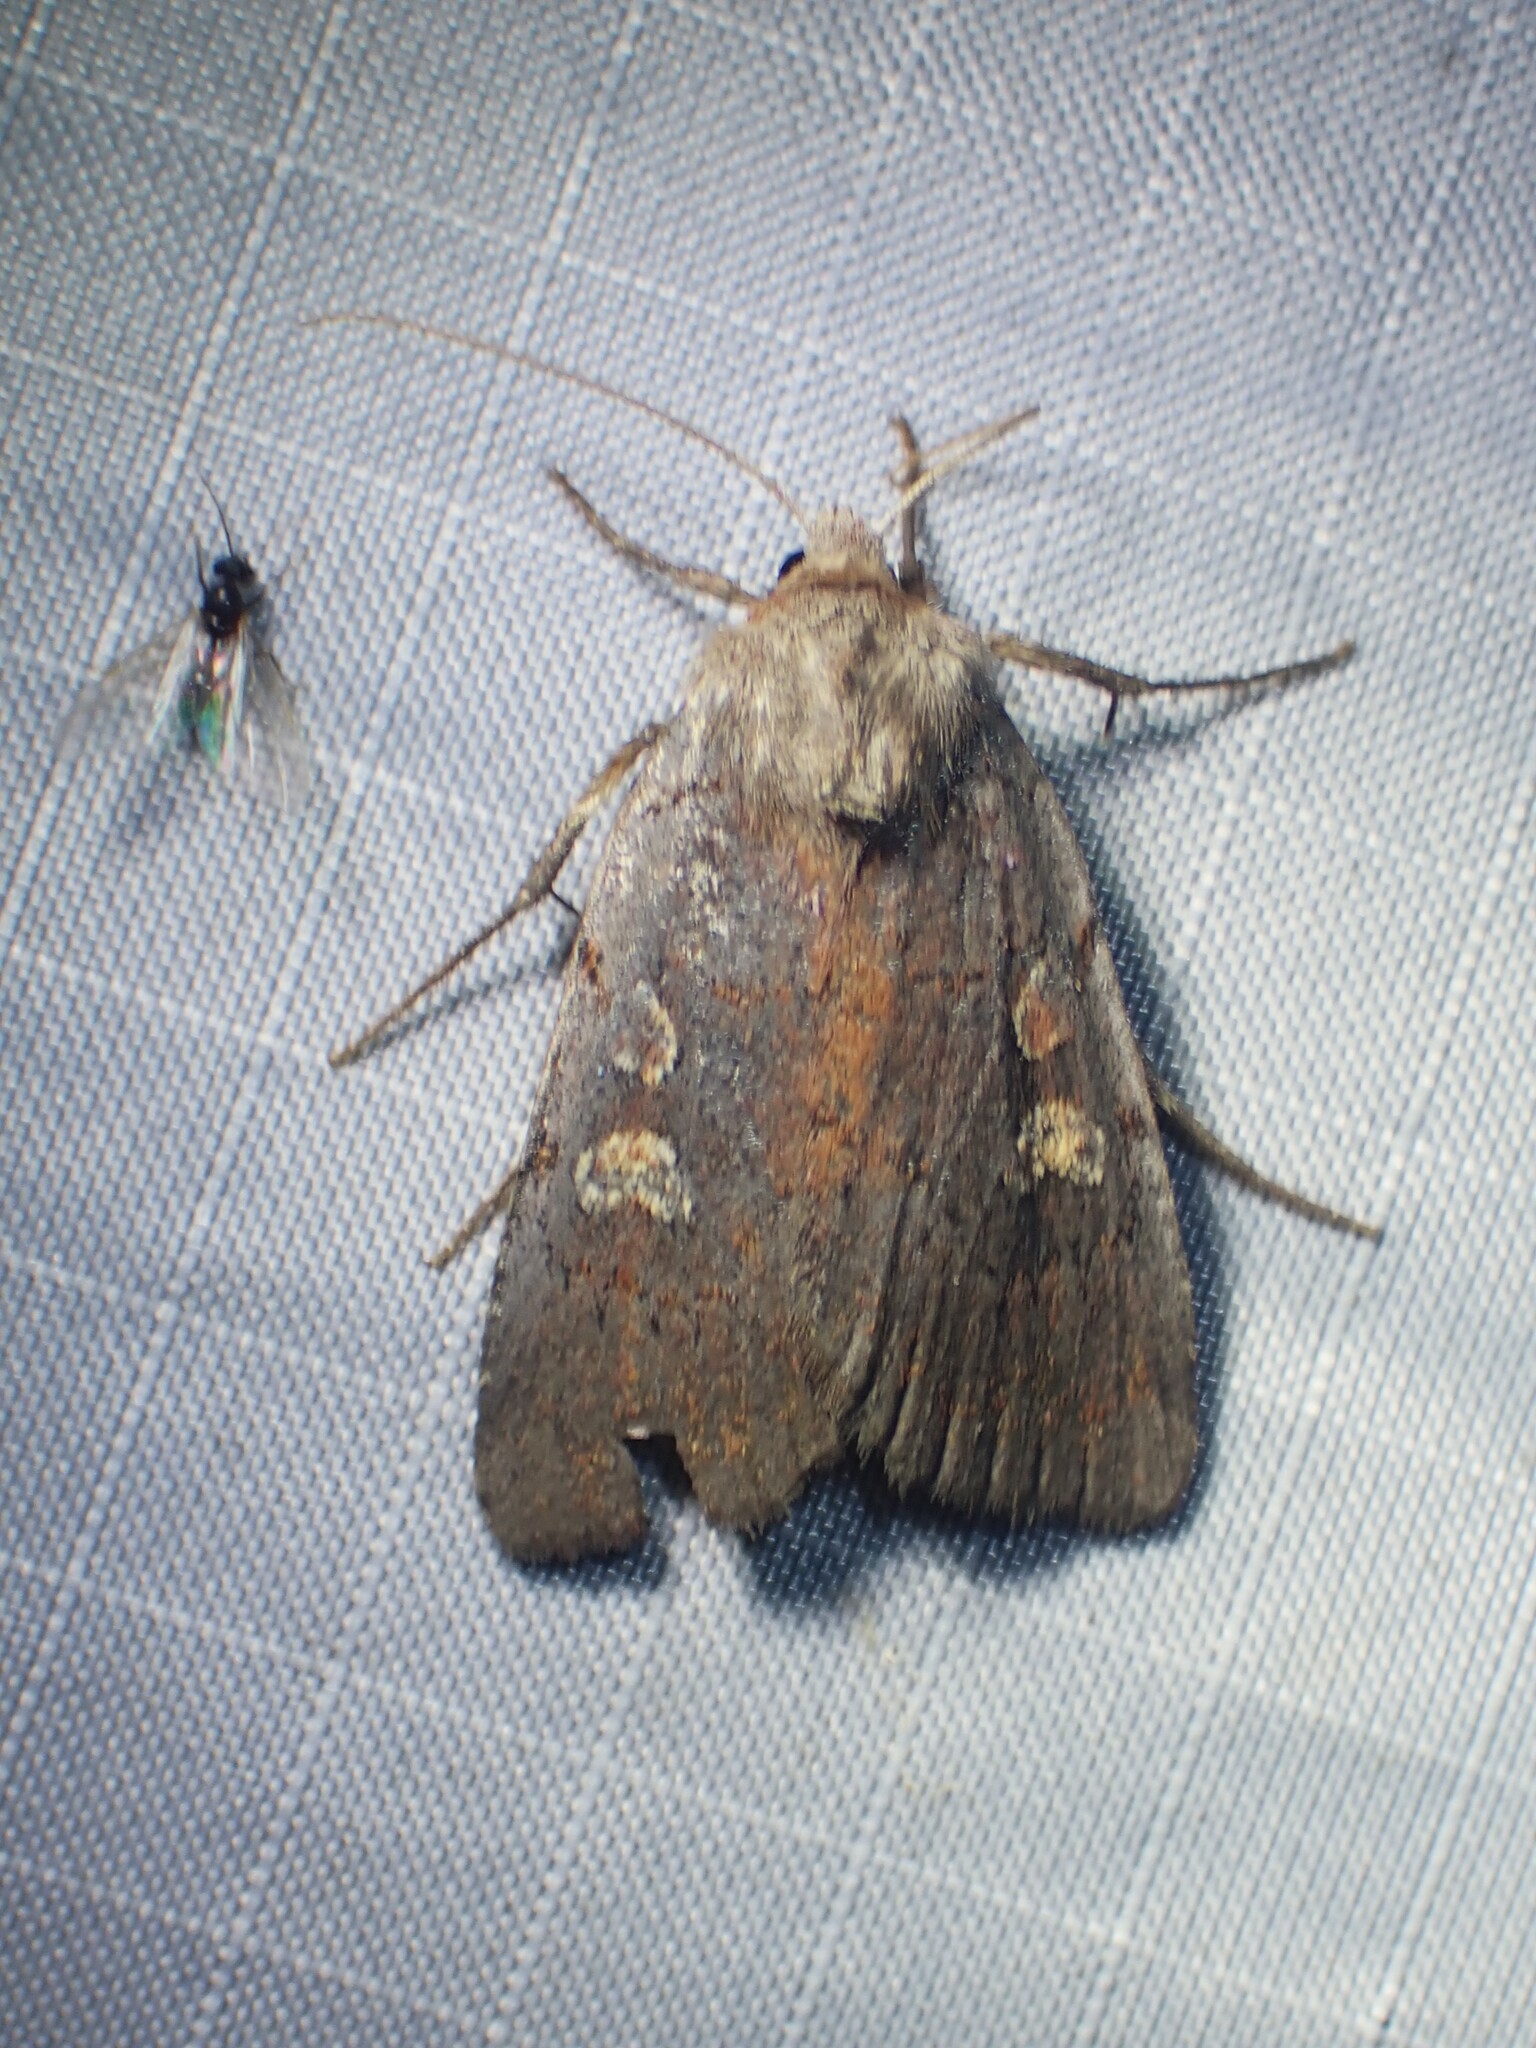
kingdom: Animalia
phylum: Arthropoda
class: Insecta
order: Lepidoptera
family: Noctuidae
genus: Xestia
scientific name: Xestia dilucida
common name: Dull reddish dart
